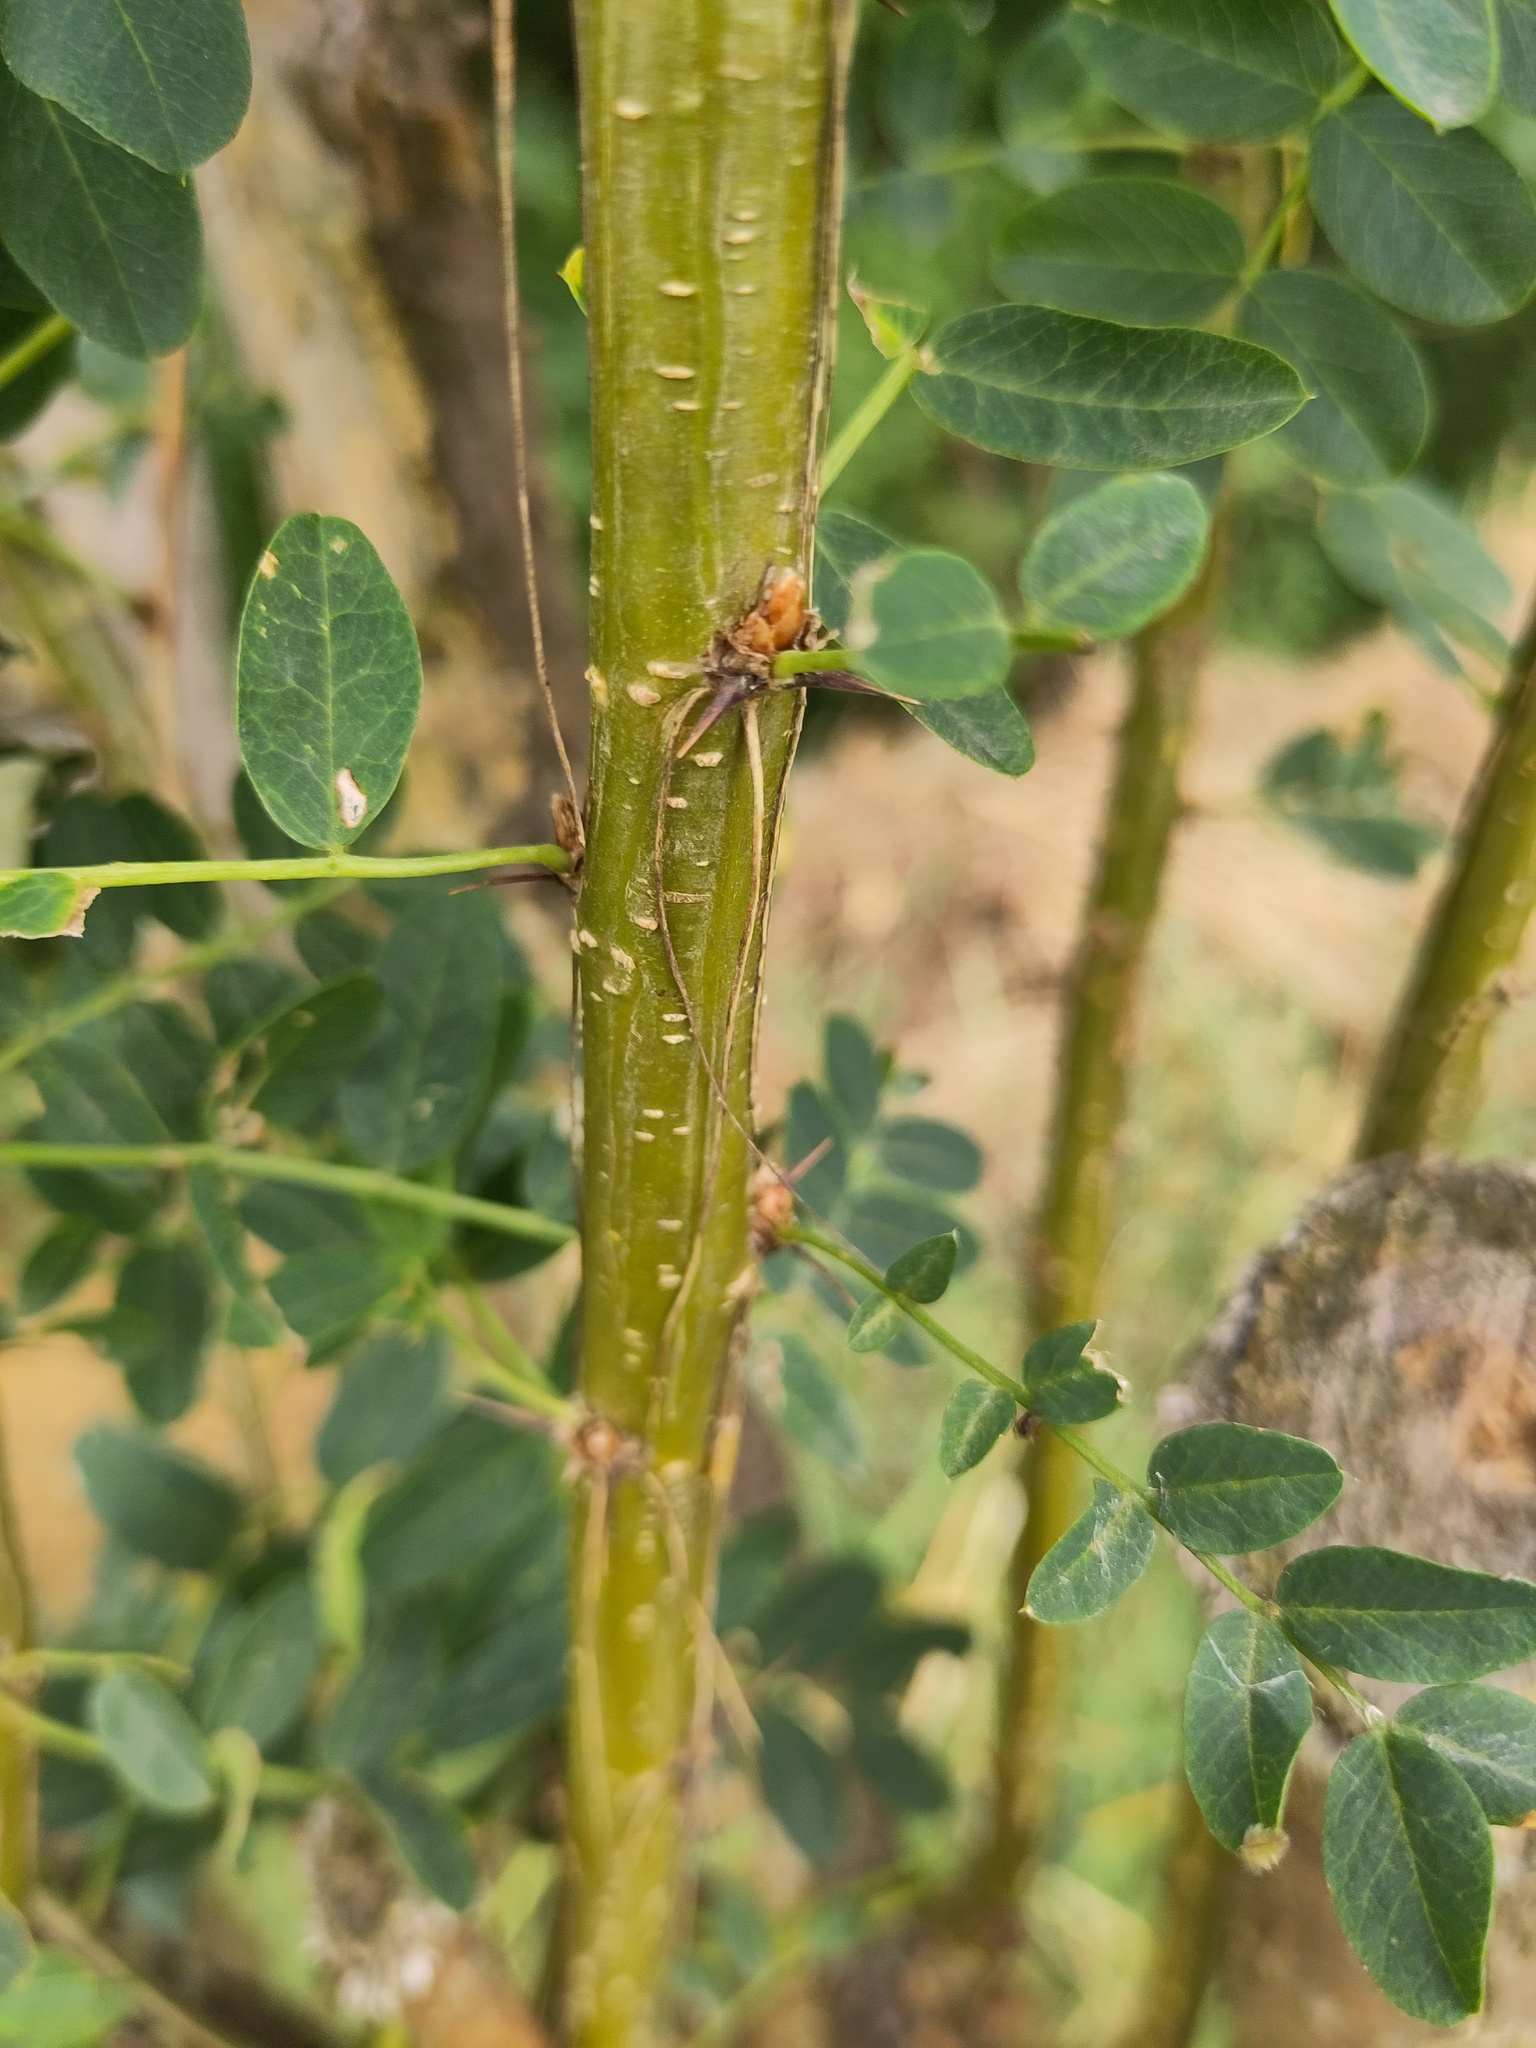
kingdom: Plantae
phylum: Tracheophyta
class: Magnoliopsida
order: Fabales
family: Fabaceae
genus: Caragana
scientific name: Caragana arborescens
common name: Siberian peashrub
